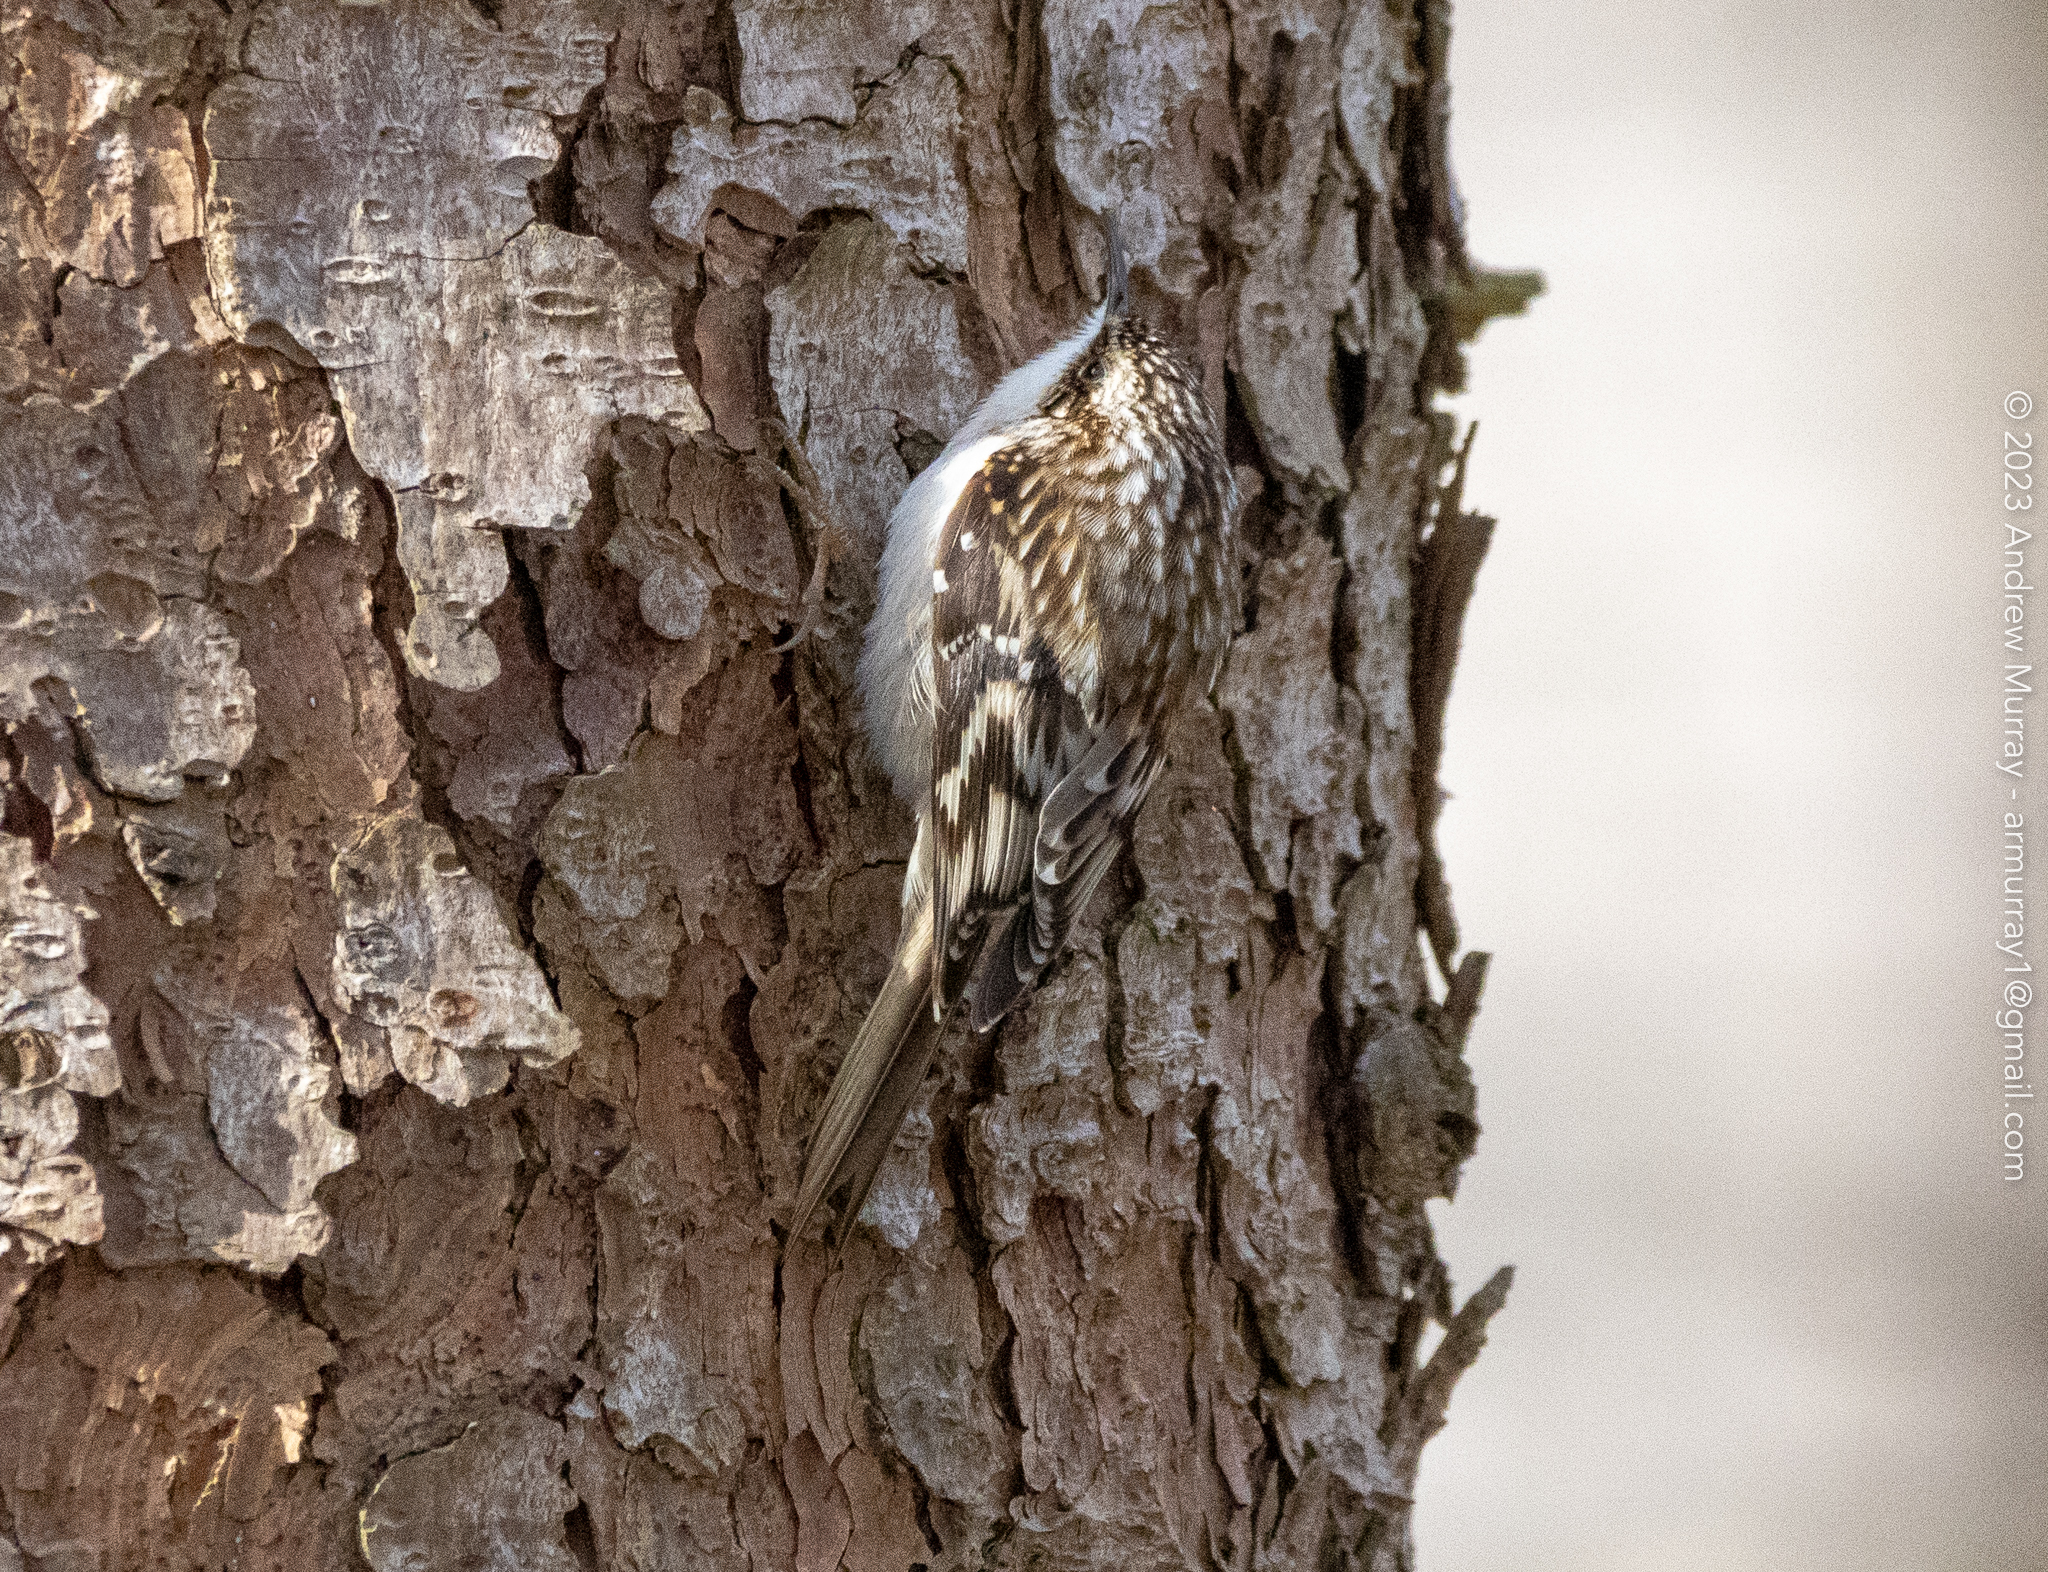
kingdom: Animalia
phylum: Chordata
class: Aves
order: Passeriformes
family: Certhiidae
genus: Certhia
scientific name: Certhia americana
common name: Brown creeper
